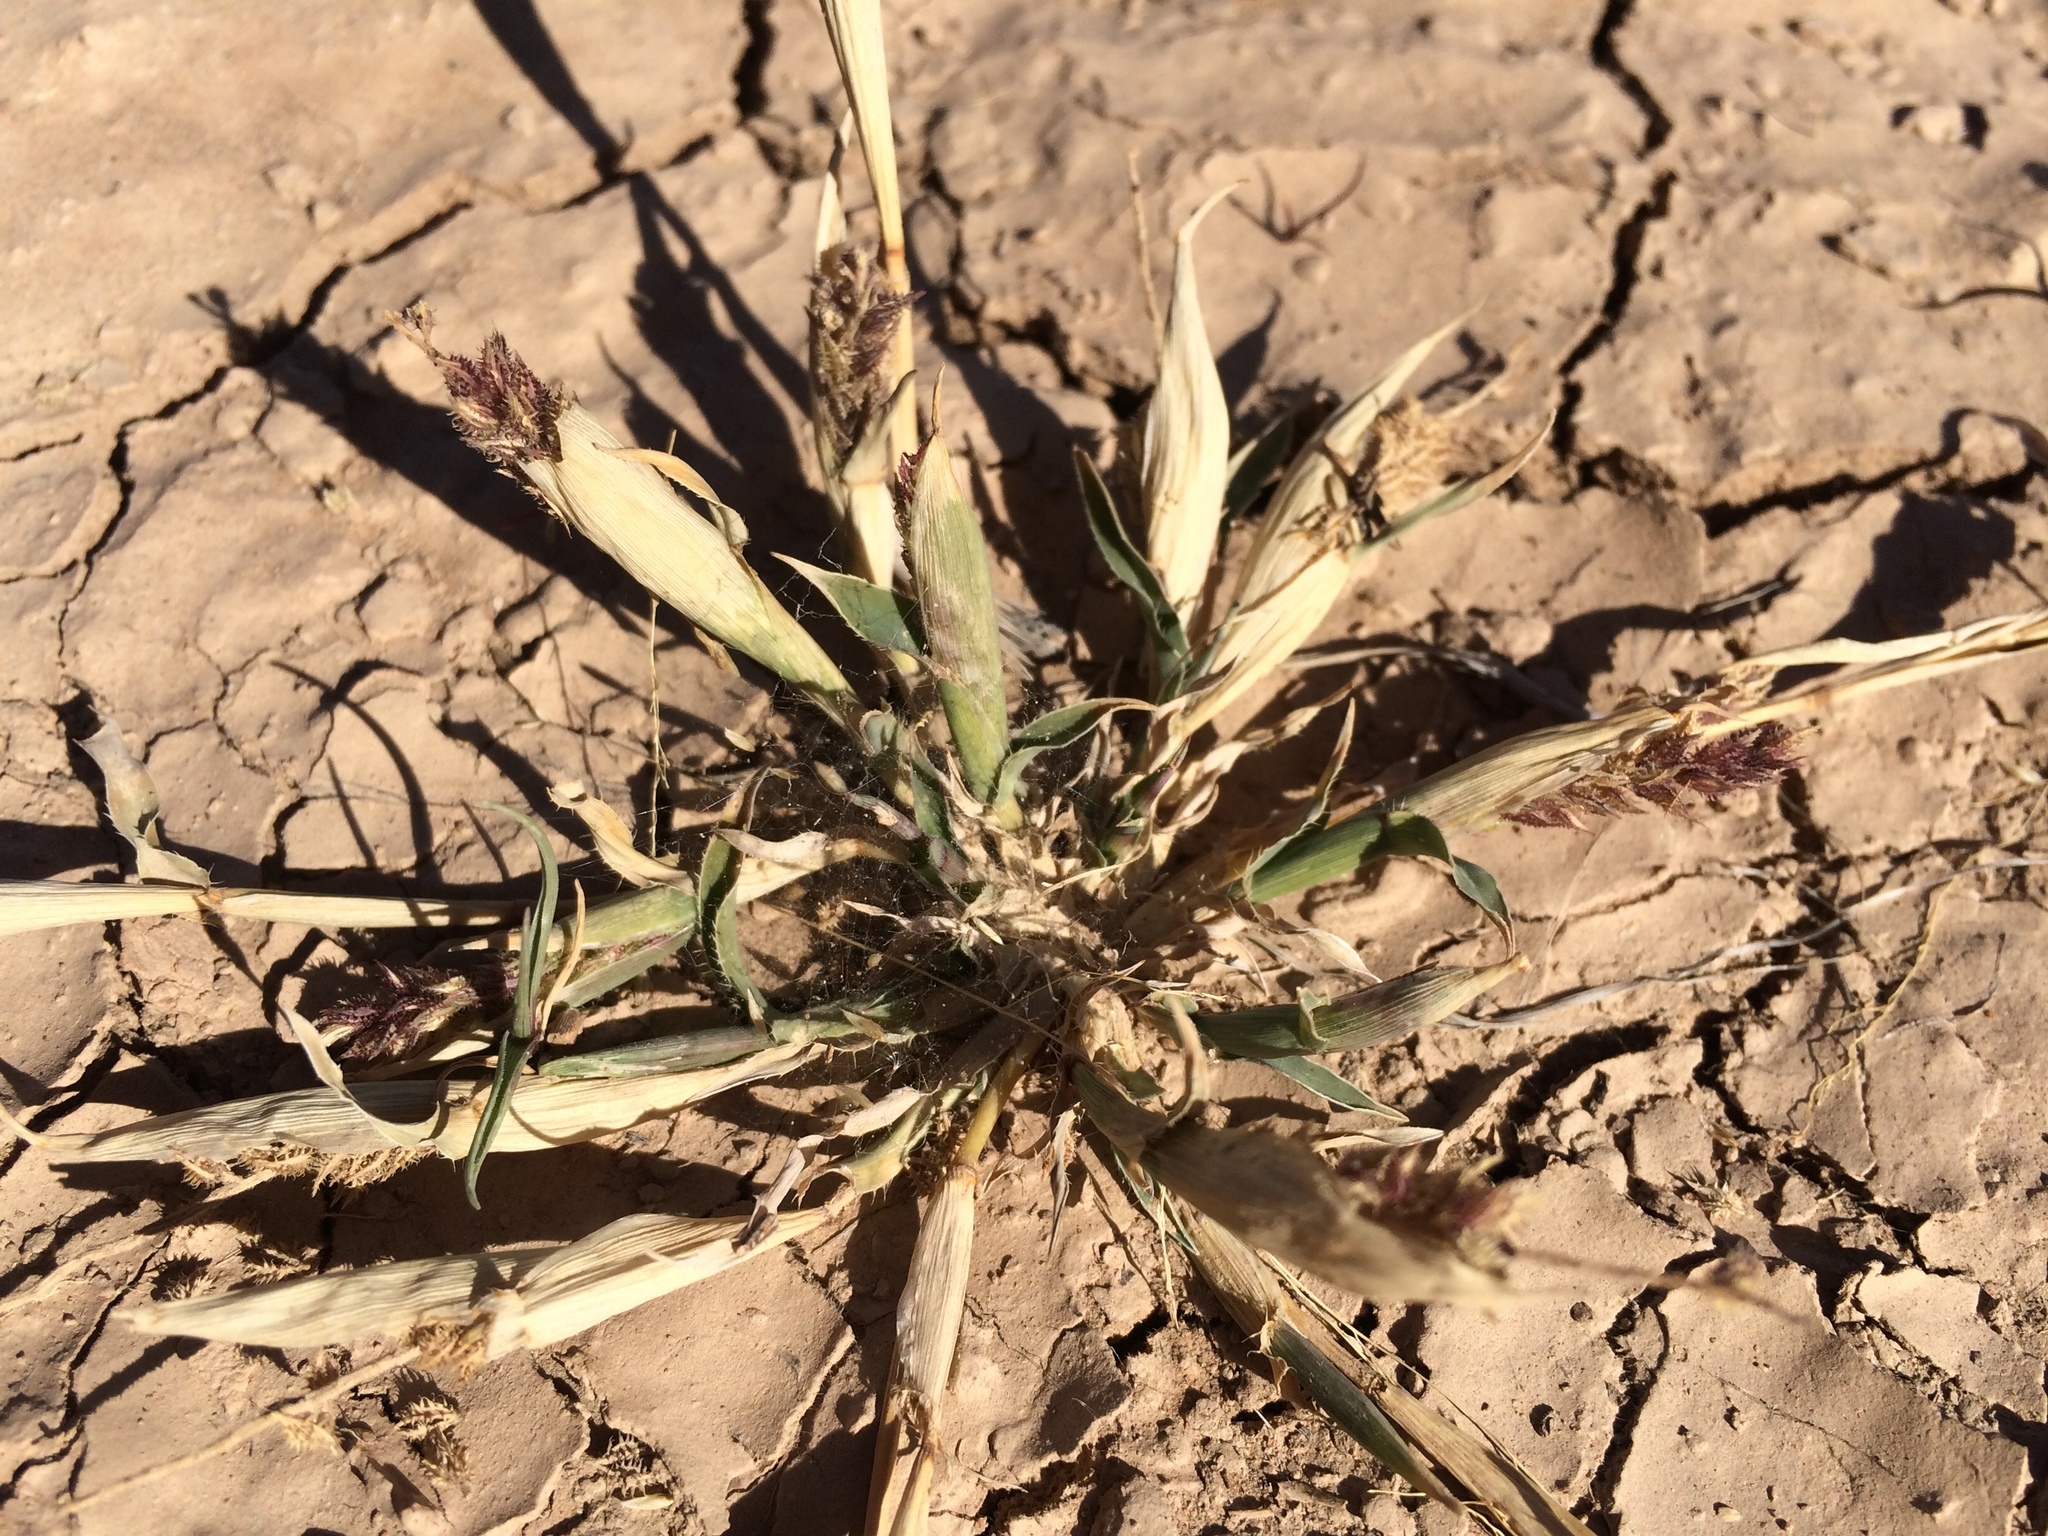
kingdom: Plantae
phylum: Tracheophyta
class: Liliopsida
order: Poales
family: Poaceae
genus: Tragus
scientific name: Tragus berteronianus
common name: African bur-grass
